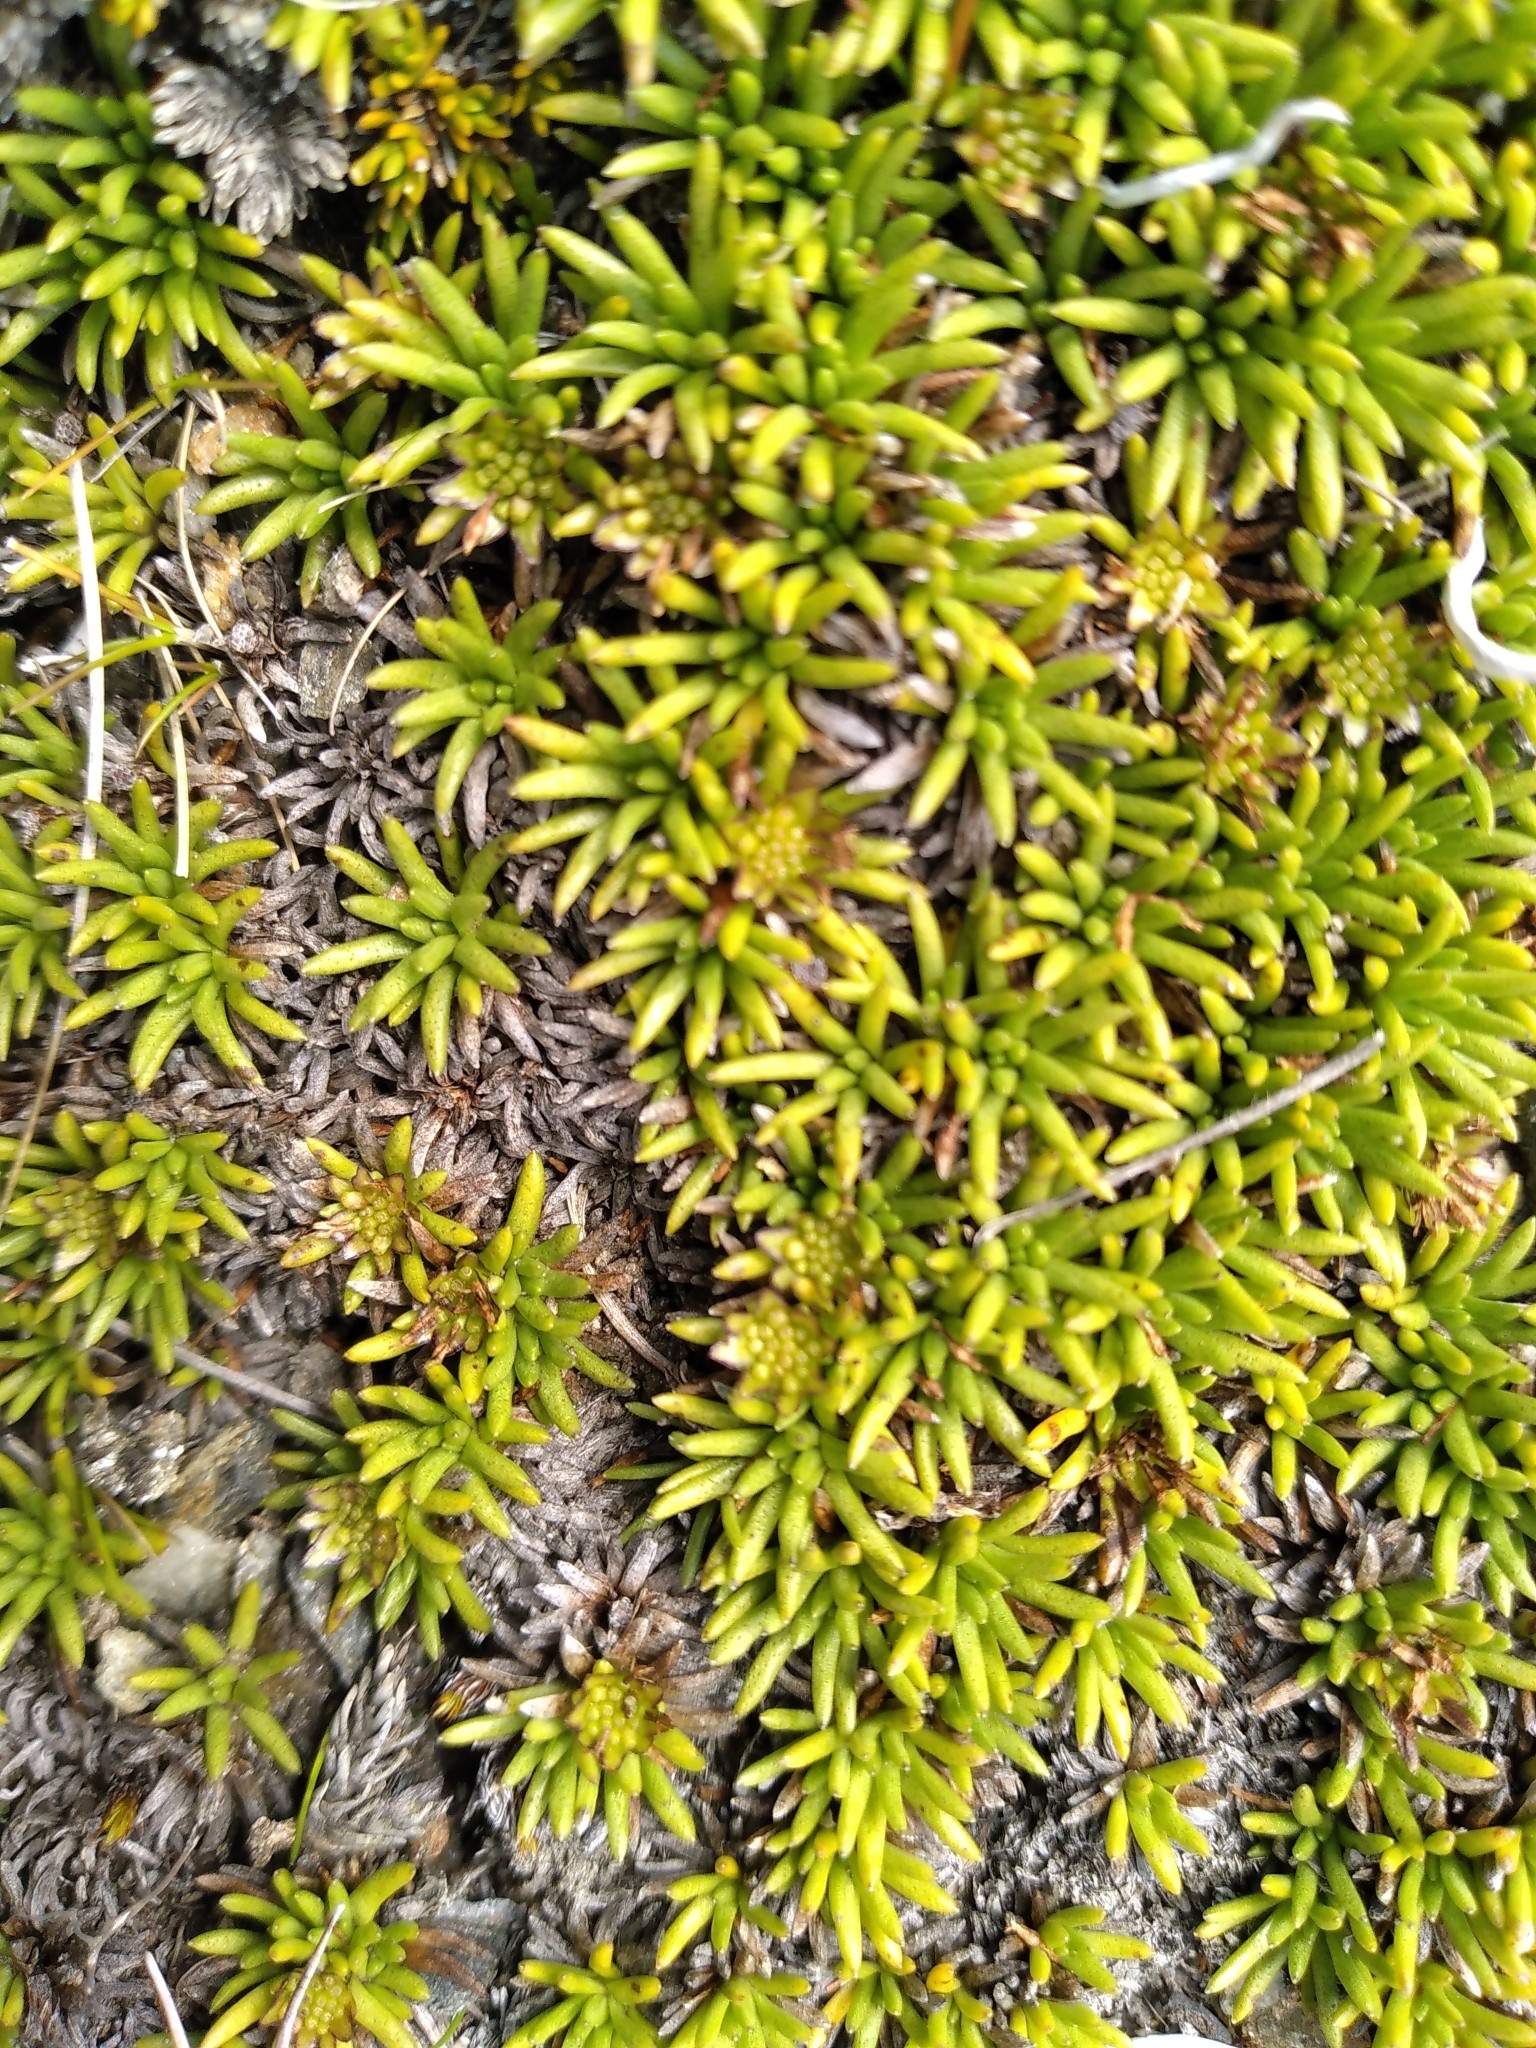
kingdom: Plantae
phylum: Tracheophyta
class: Magnoliopsida
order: Asterales
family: Asteraceae
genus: Abrotanella
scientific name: Abrotanella inconspicua
